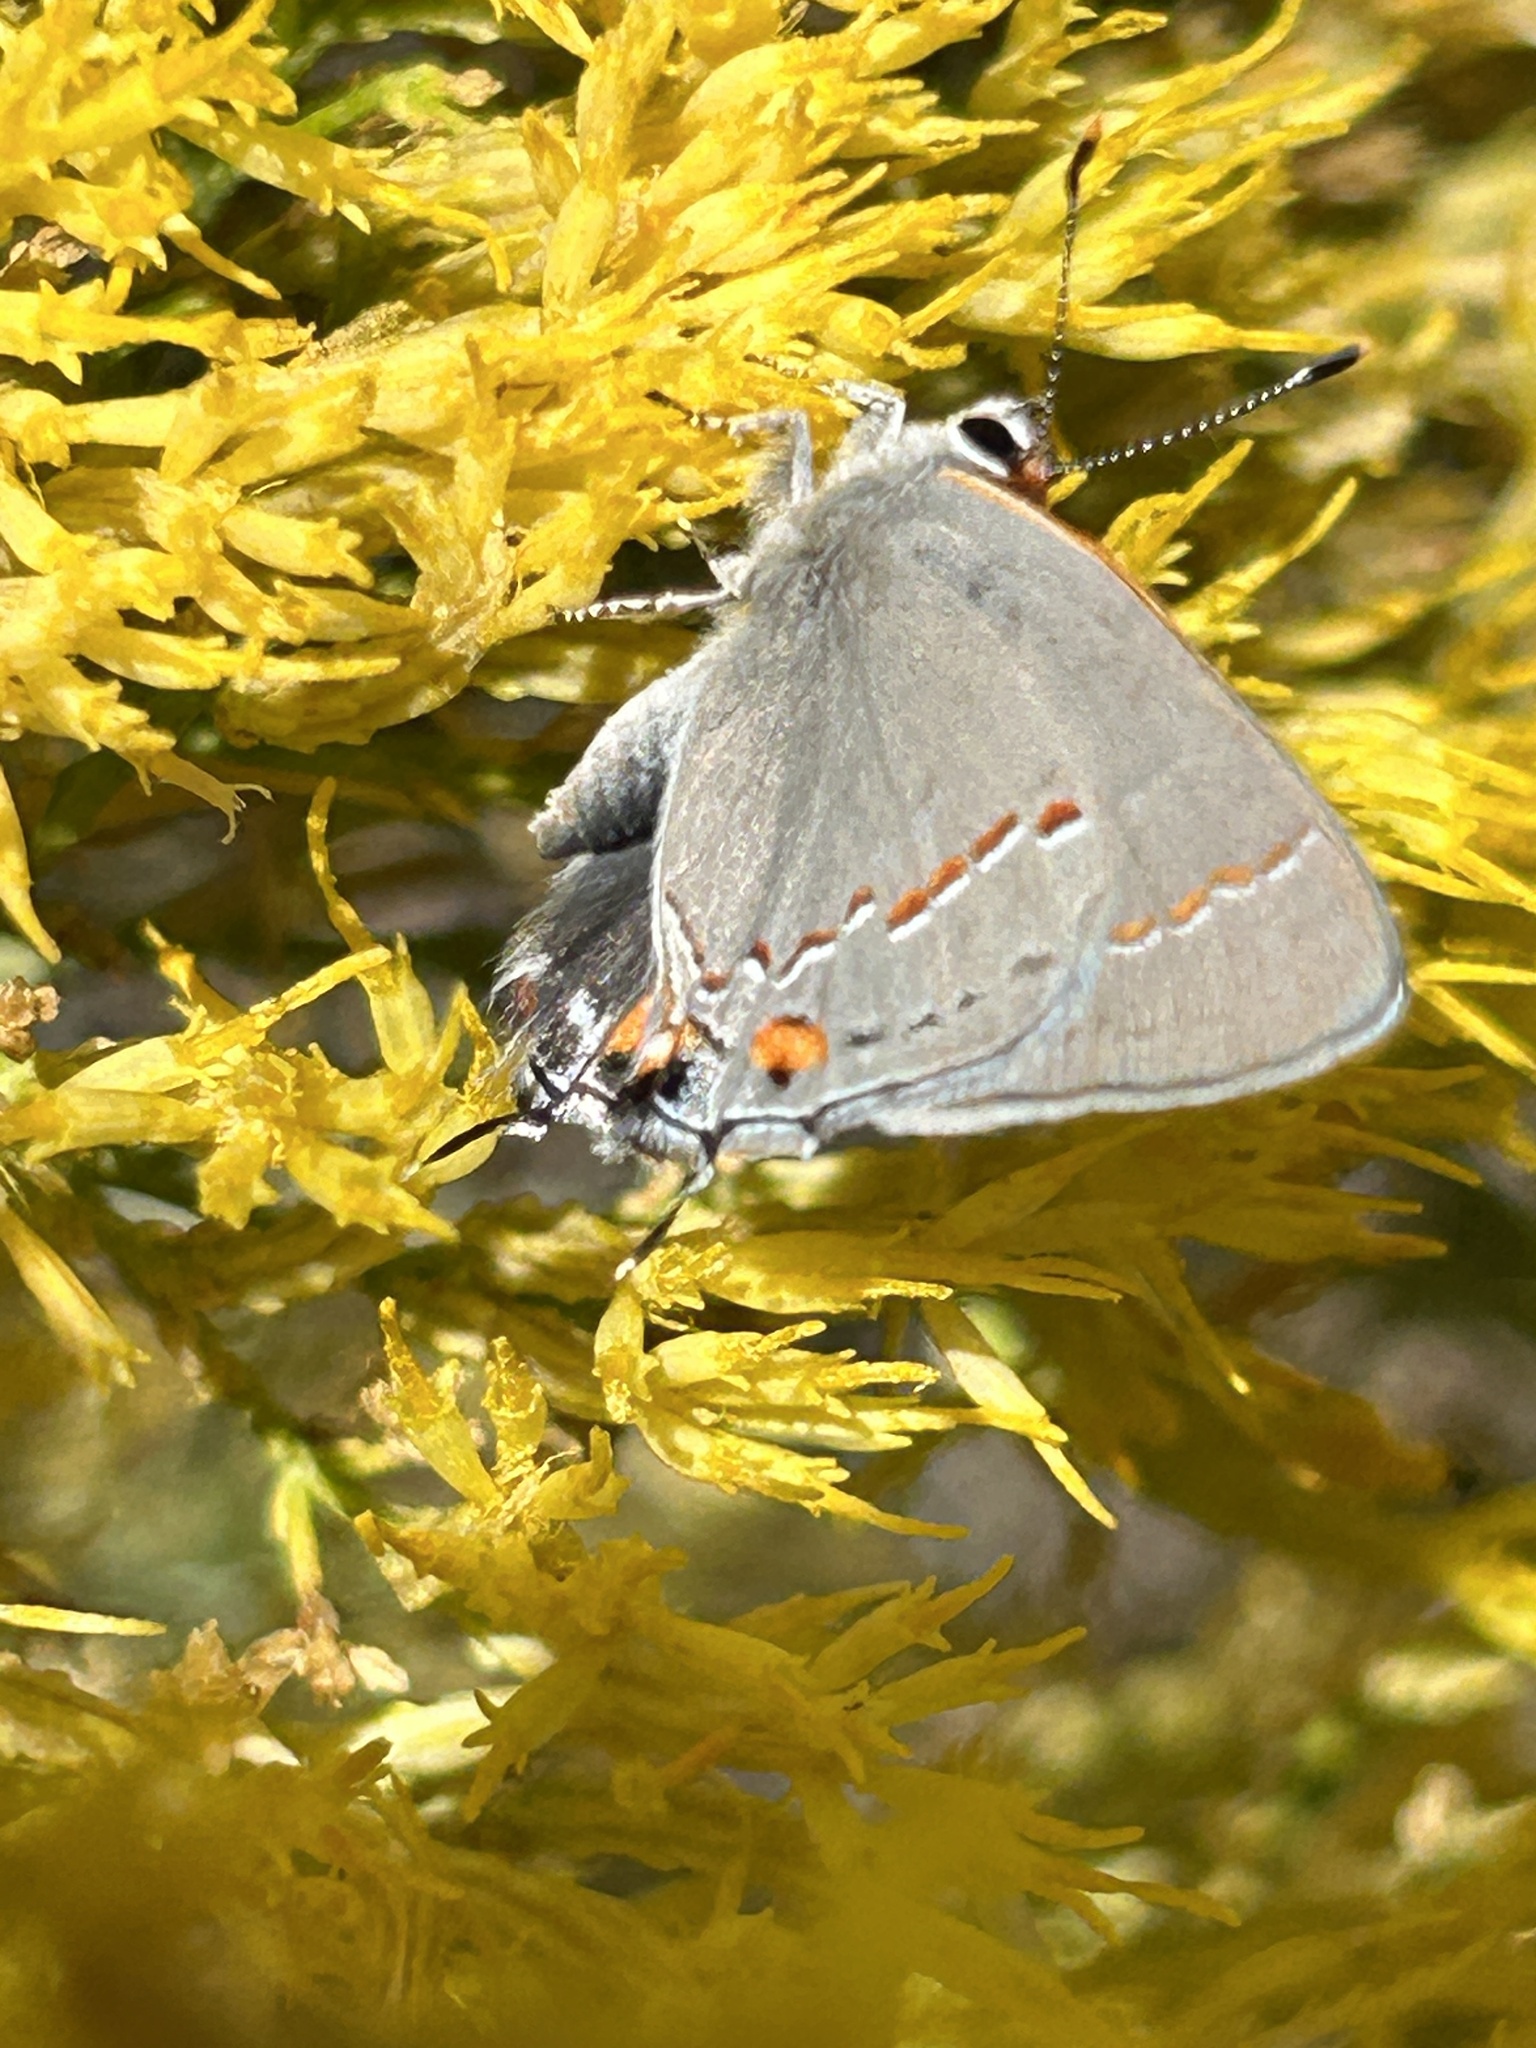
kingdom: Animalia
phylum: Arthropoda
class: Insecta
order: Lepidoptera
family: Lycaenidae
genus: Strymon
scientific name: Strymon melinus
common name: Gray hairstreak
